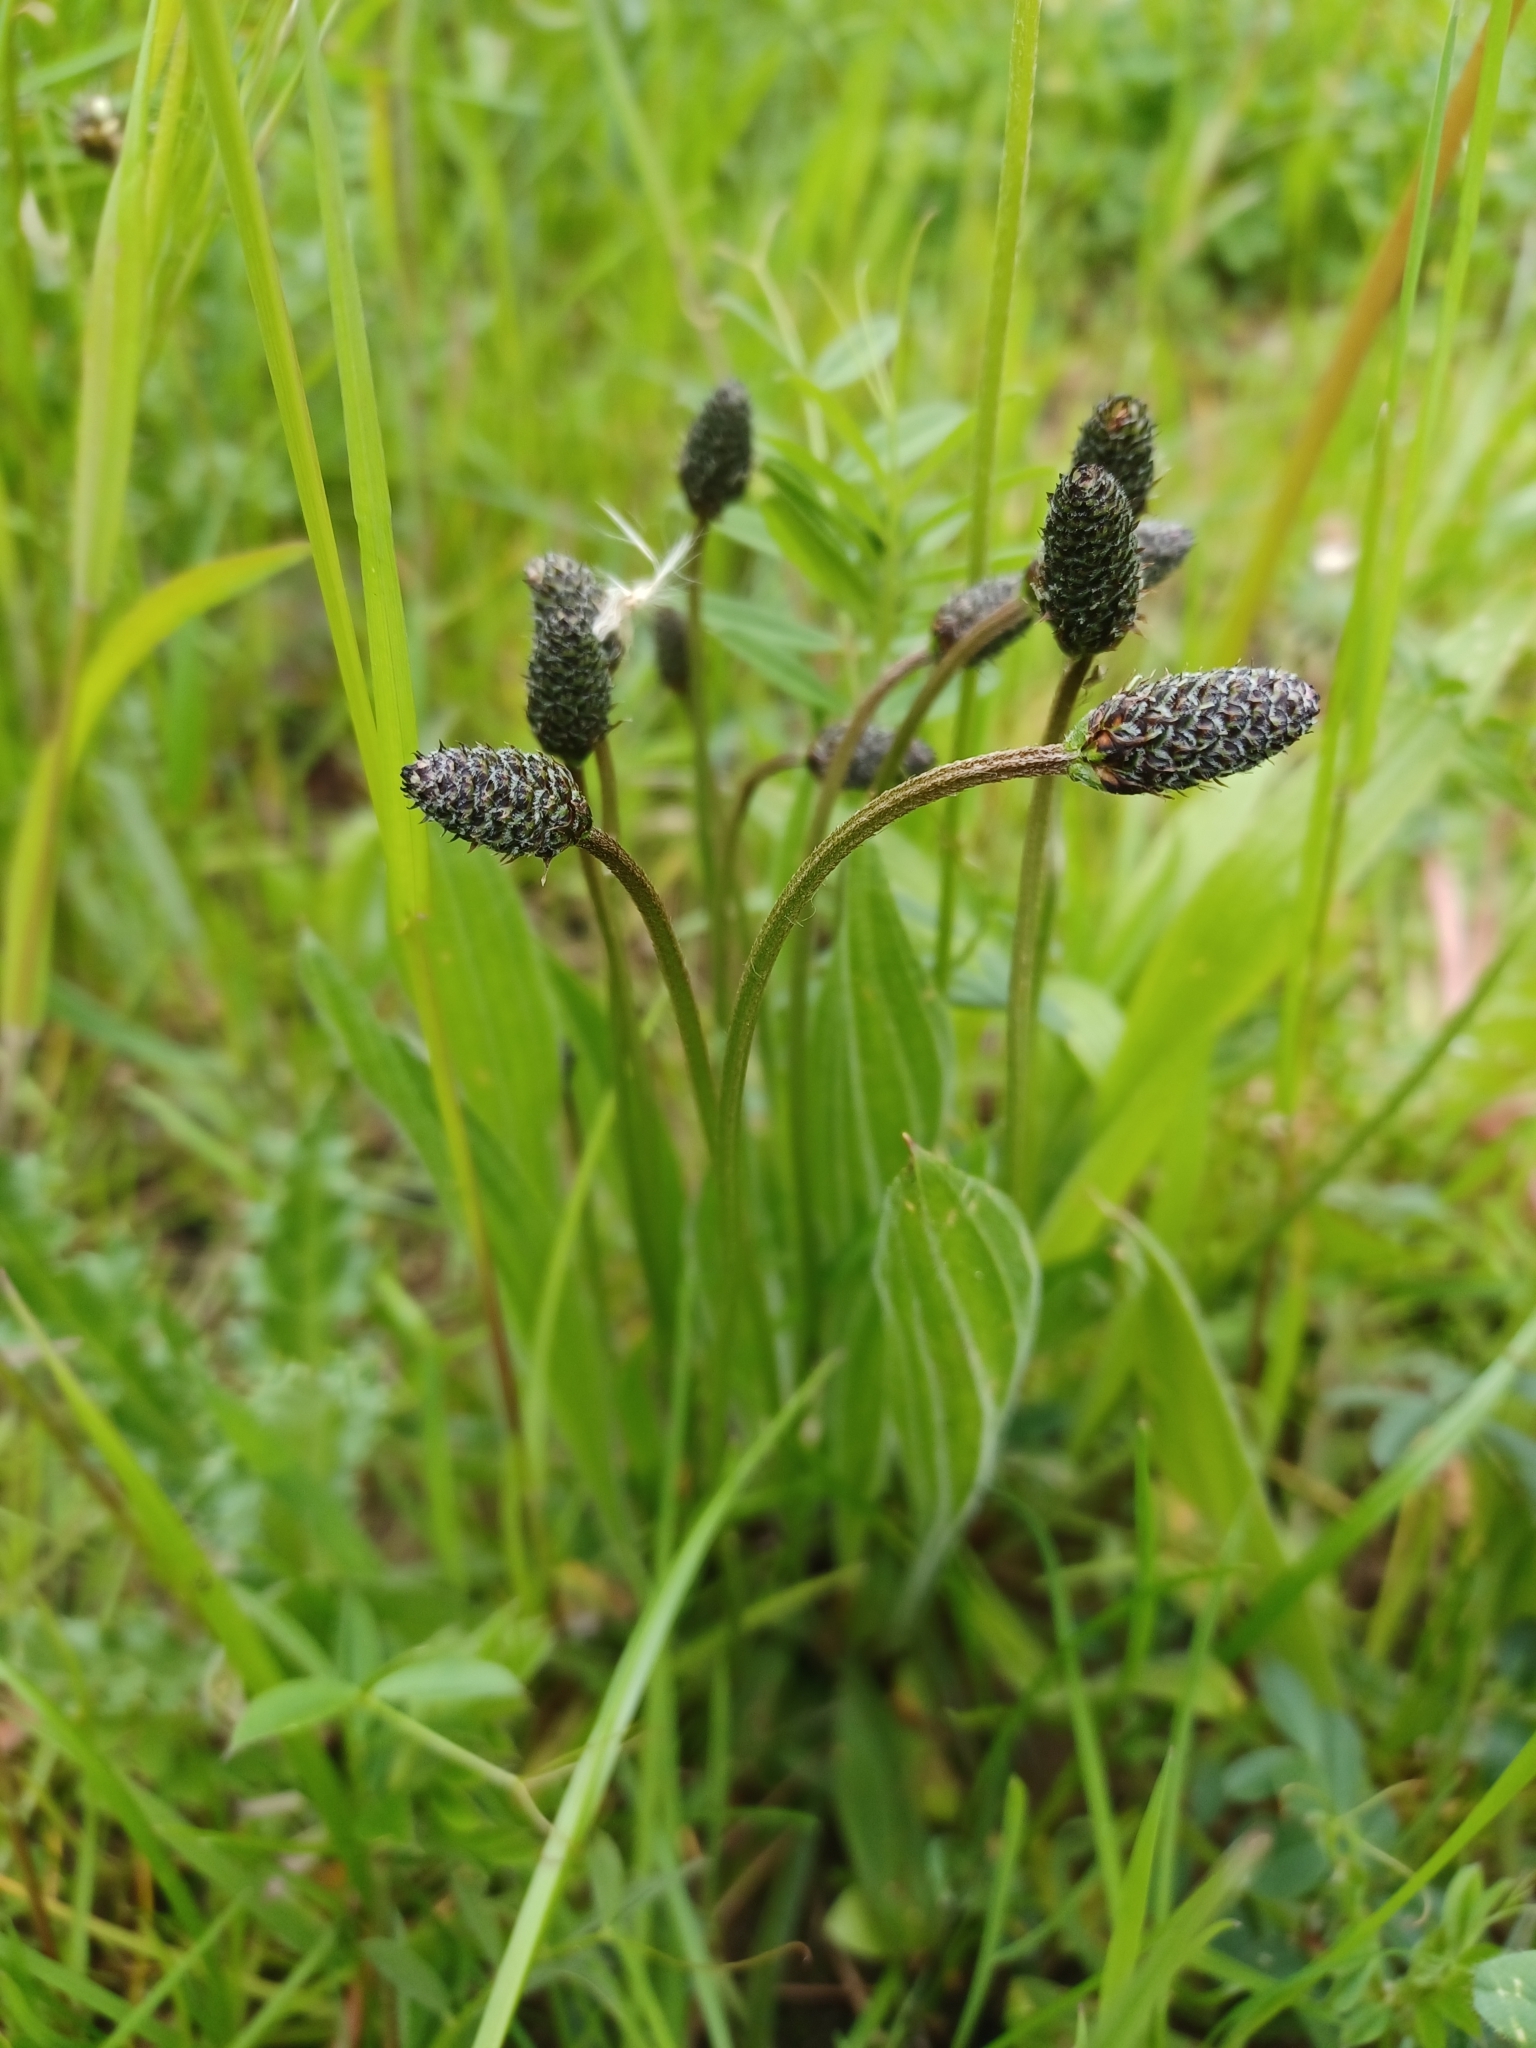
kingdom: Plantae
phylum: Tracheophyta
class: Magnoliopsida
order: Lamiales
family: Plantaginaceae
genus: Plantago
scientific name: Plantago lanceolata
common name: Ribwort plantain
